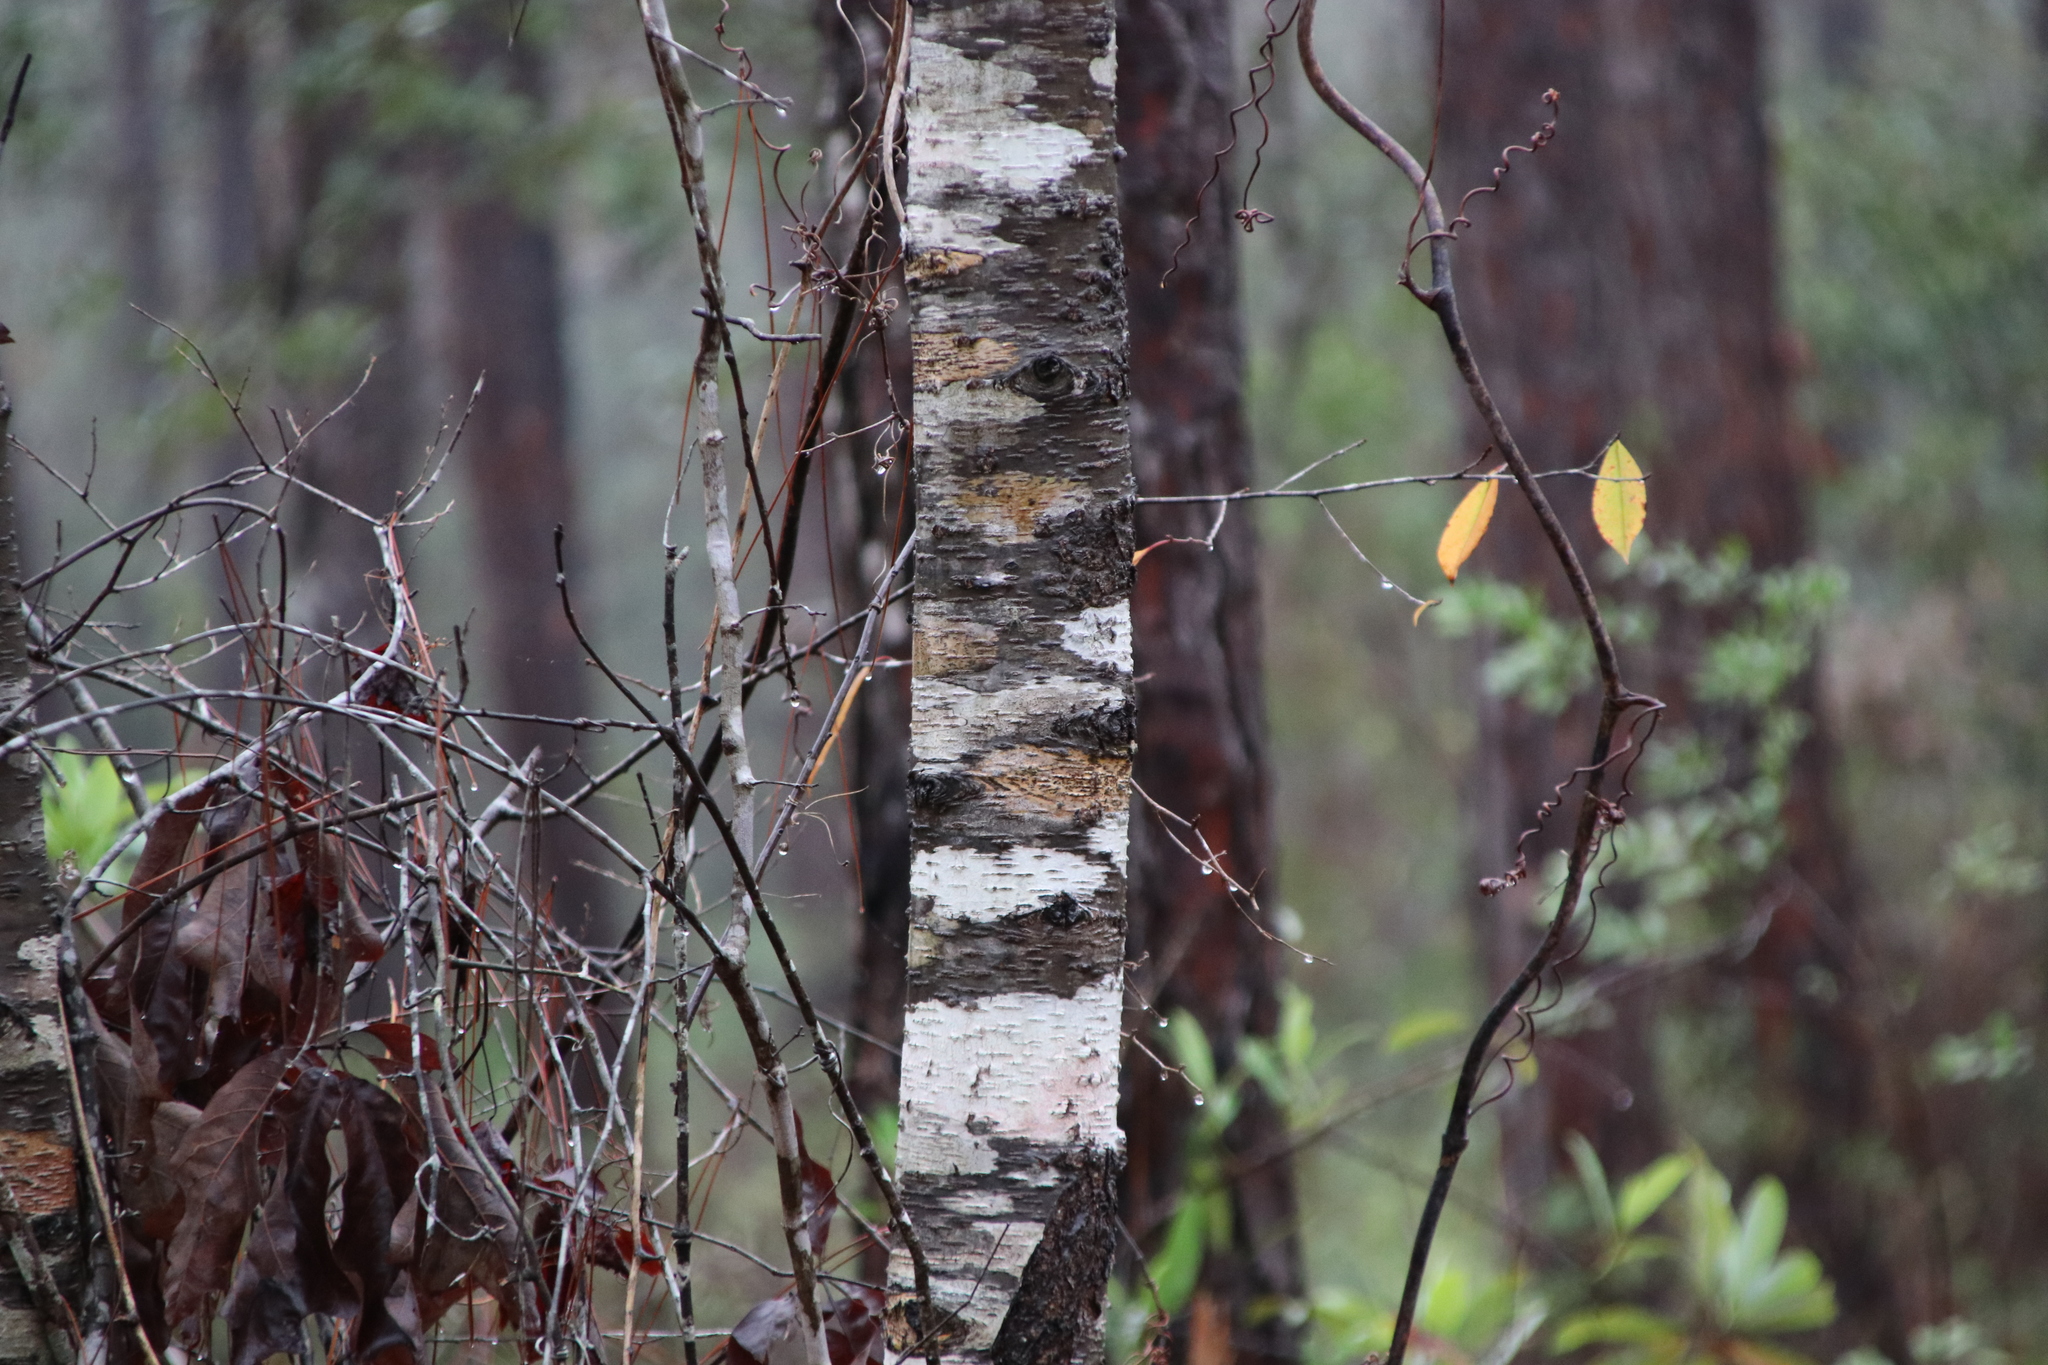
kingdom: Plantae
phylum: Tracheophyta
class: Magnoliopsida
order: Rosales
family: Rosaceae
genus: Prunus
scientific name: Prunus serotina
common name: Black cherry
